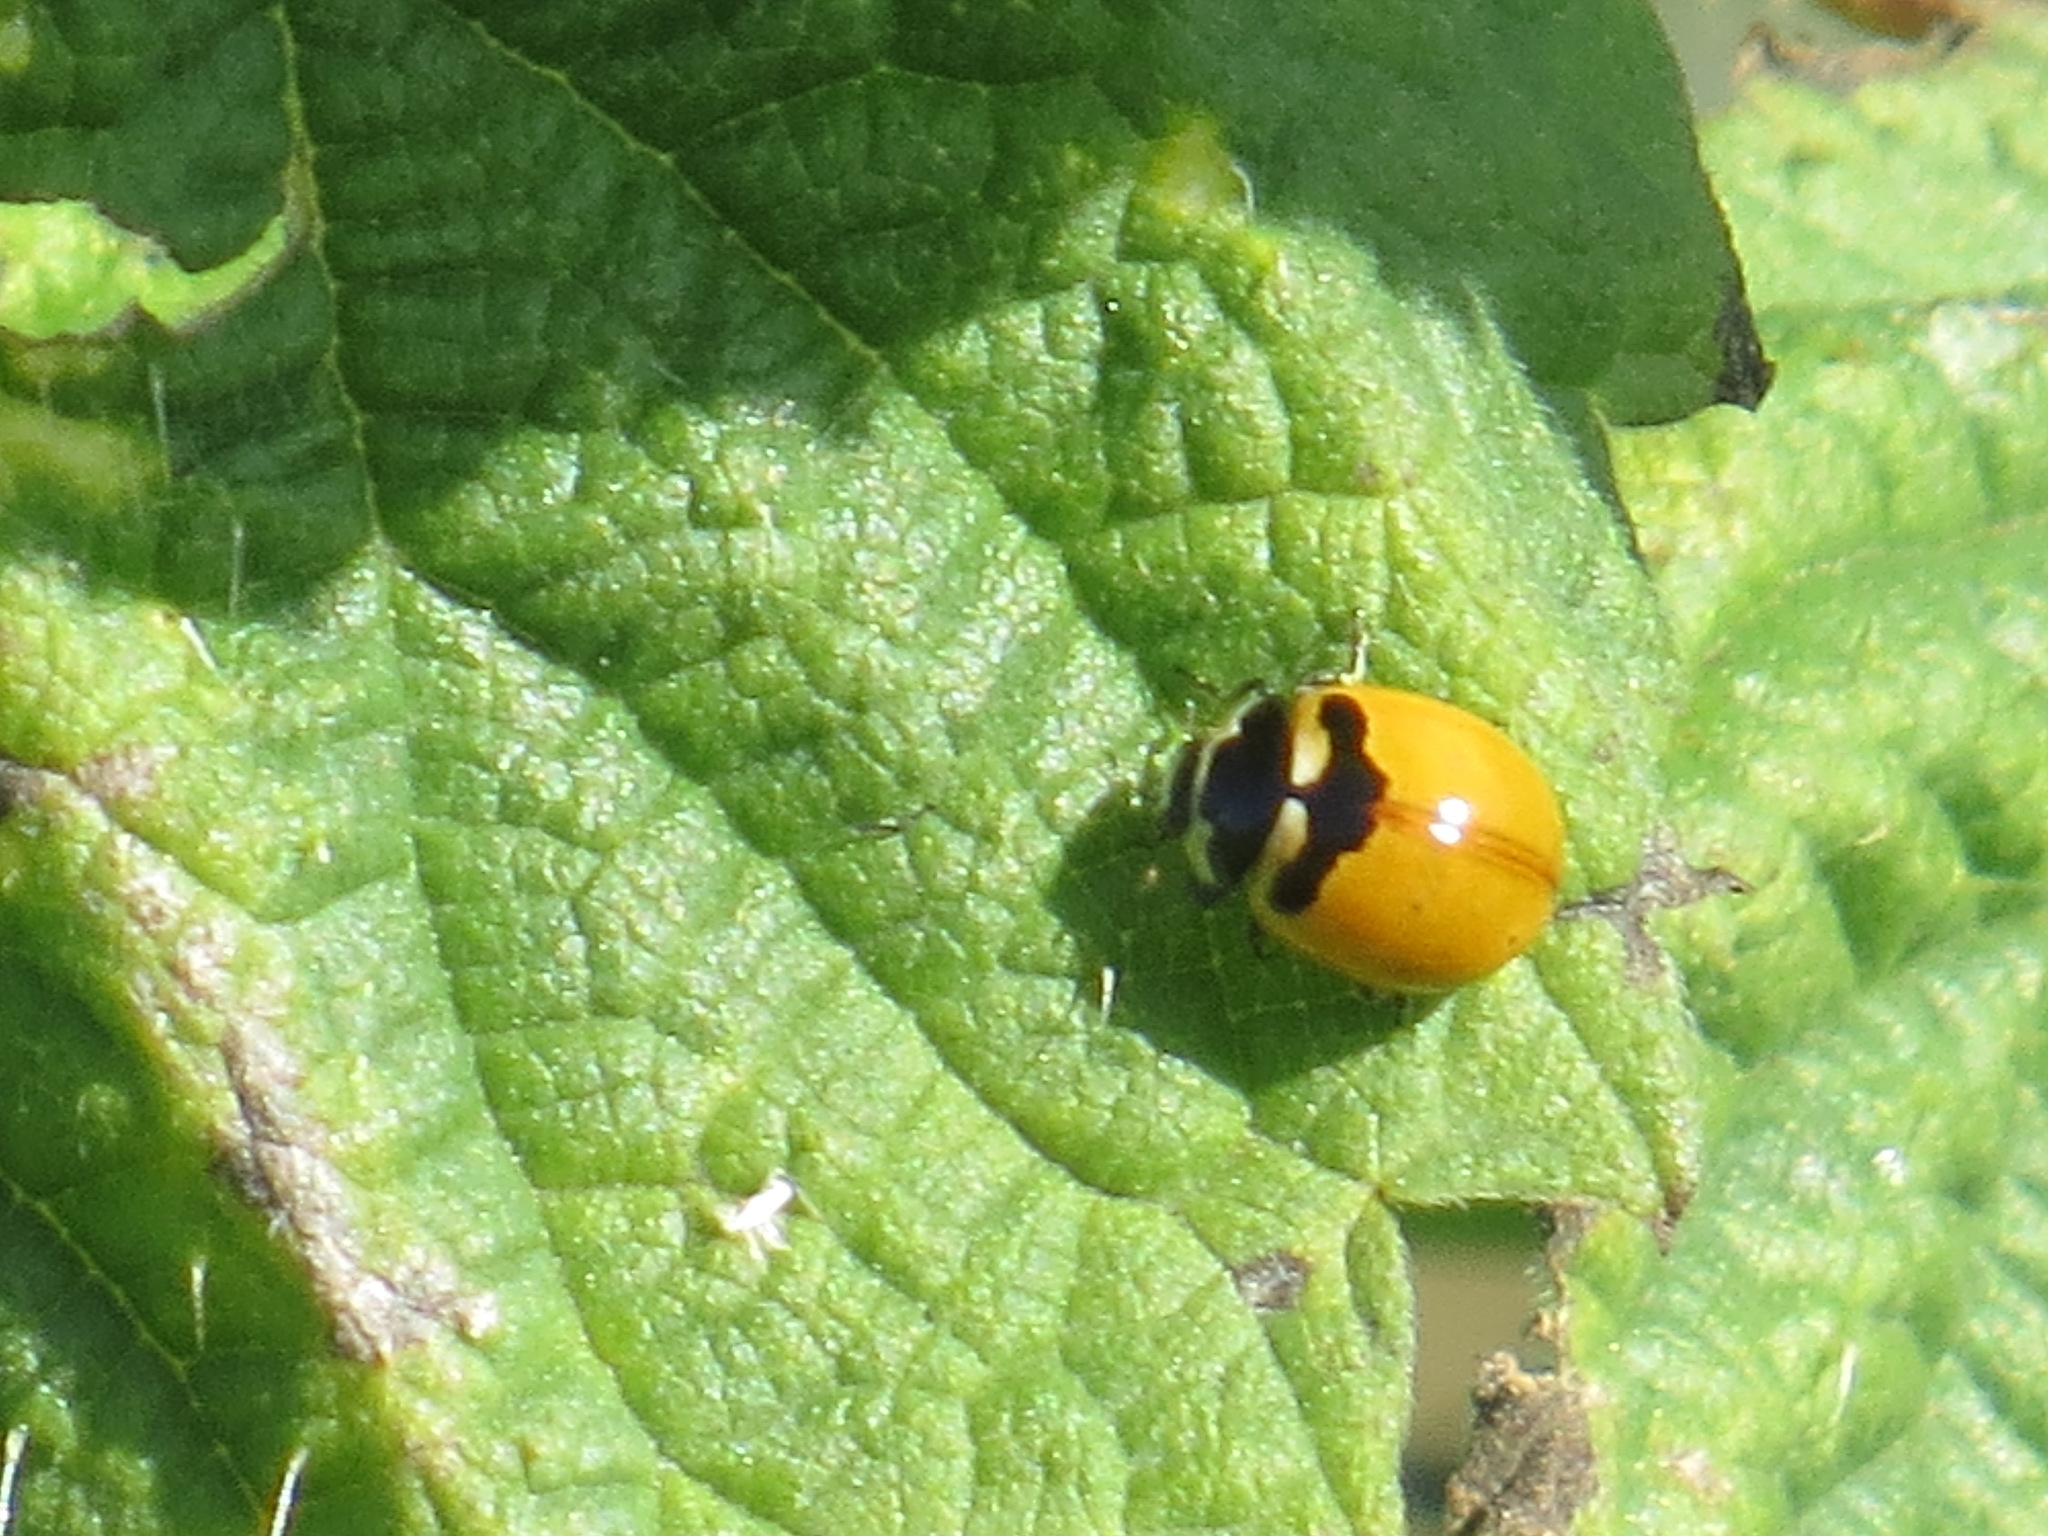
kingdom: Animalia
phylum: Arthropoda
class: Insecta
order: Coleoptera
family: Coccinellidae
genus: Coccinella
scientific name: Coccinella trifasciata
